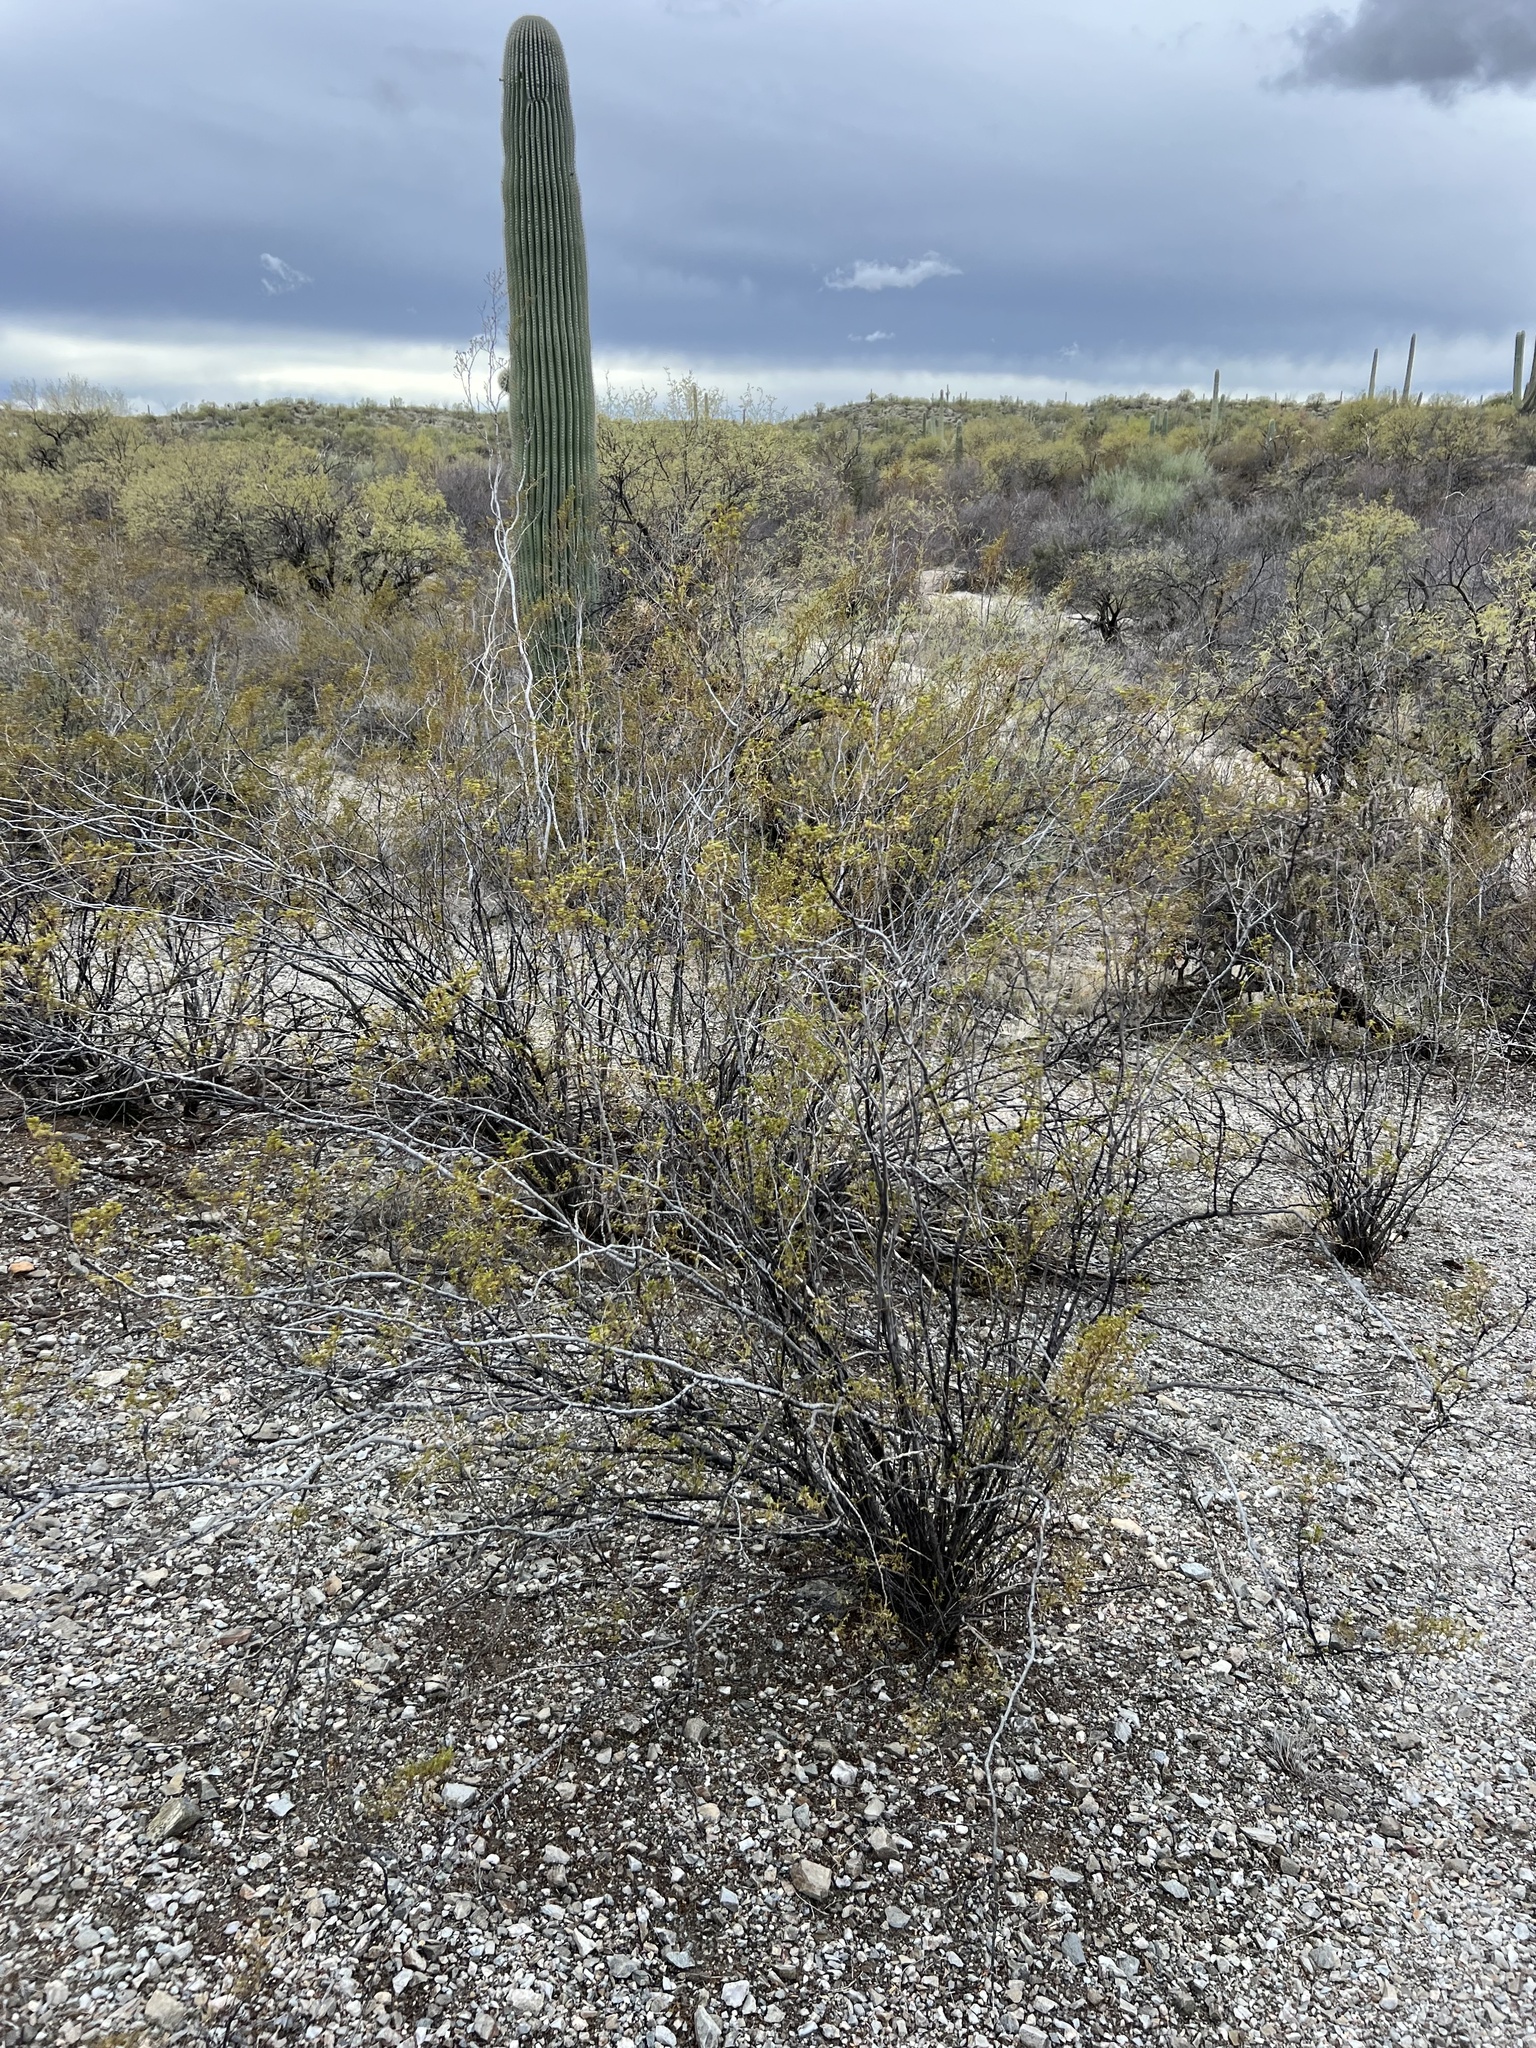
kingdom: Plantae
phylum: Tracheophyta
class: Magnoliopsida
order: Zygophyllales
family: Zygophyllaceae
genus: Larrea
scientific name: Larrea tridentata
